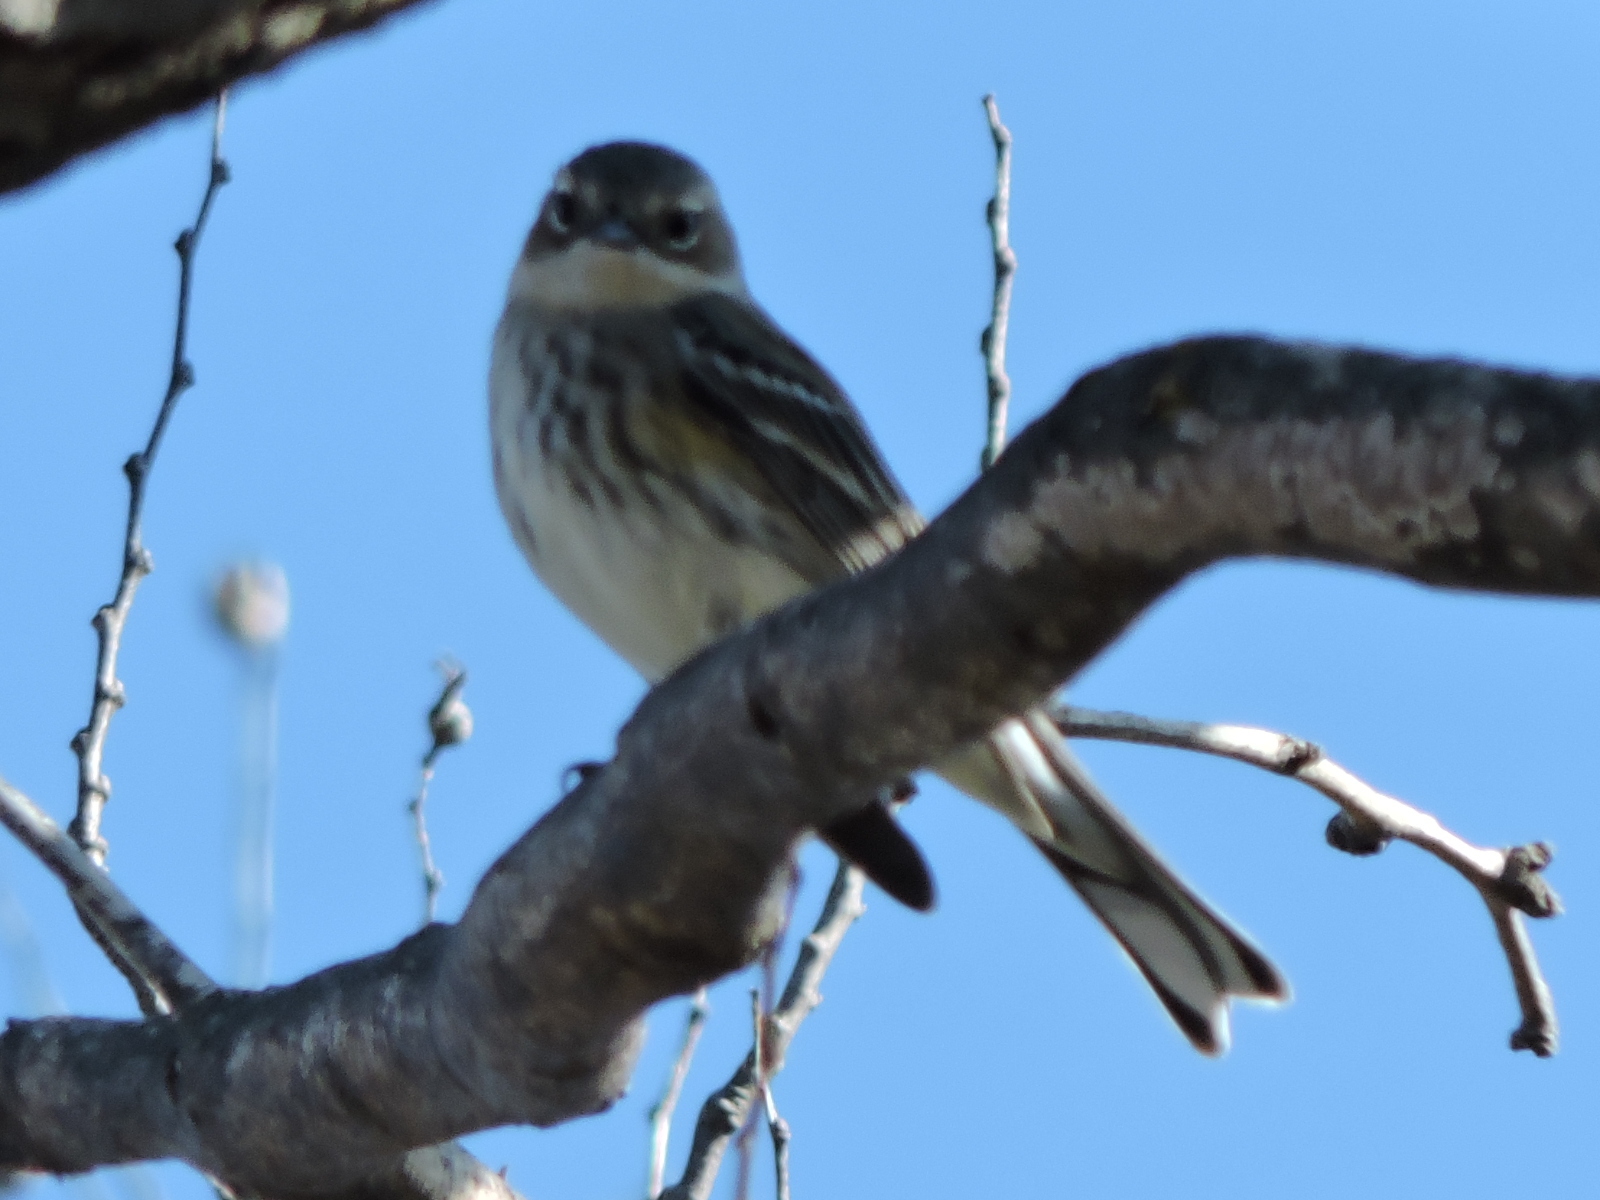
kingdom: Animalia
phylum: Chordata
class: Aves
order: Passeriformes
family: Parulidae
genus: Setophaga
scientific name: Setophaga coronata
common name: Myrtle warbler
